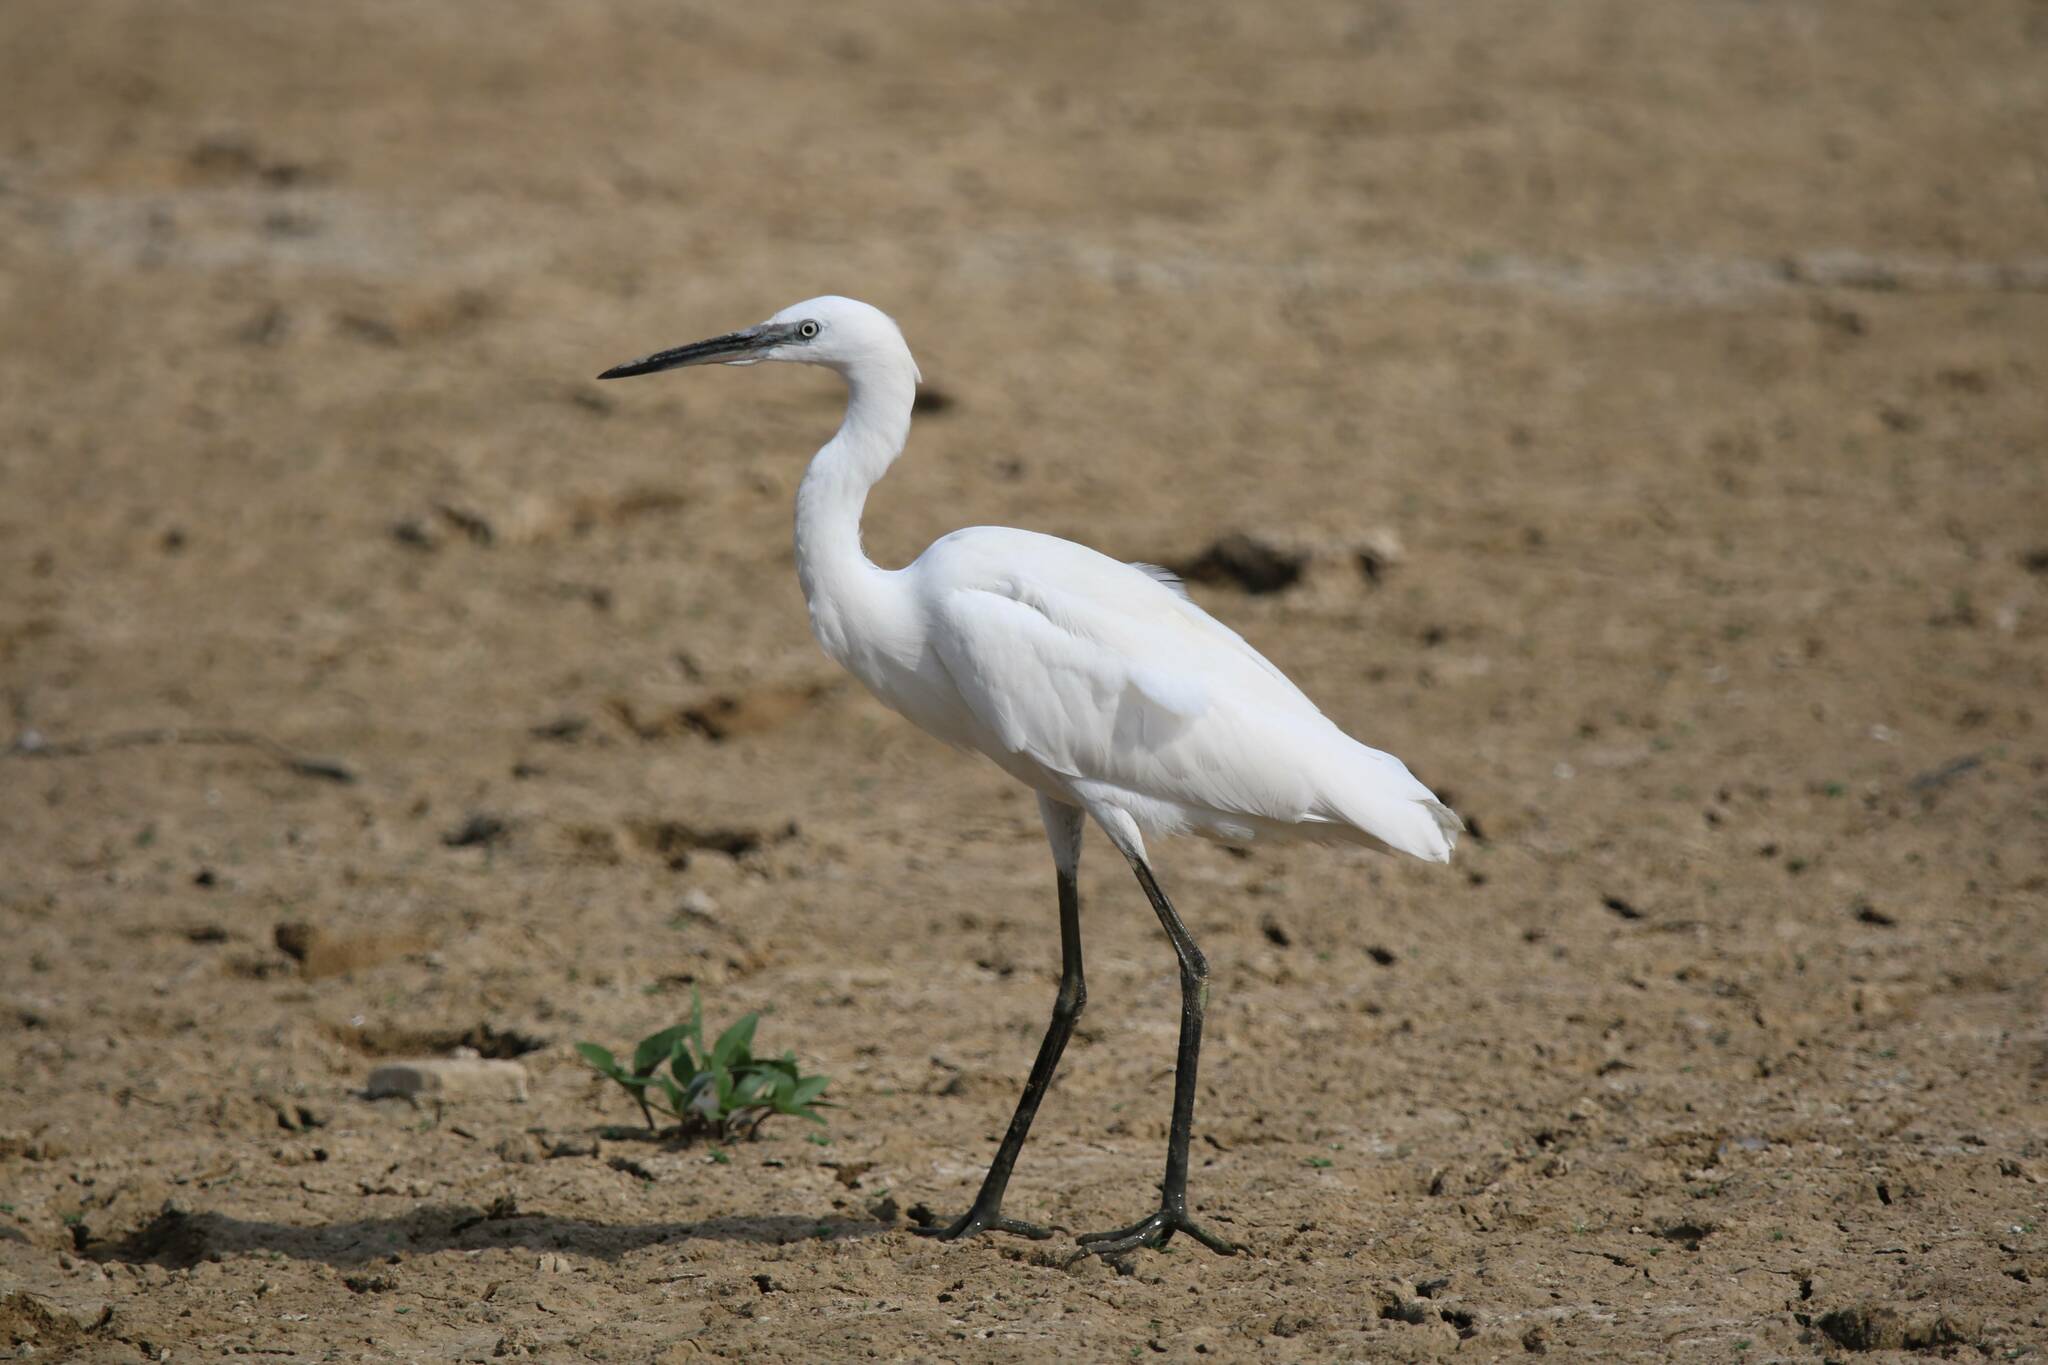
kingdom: Animalia
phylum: Chordata
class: Aves
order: Pelecaniformes
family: Ardeidae
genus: Egretta
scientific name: Egretta garzetta
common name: Little egret
